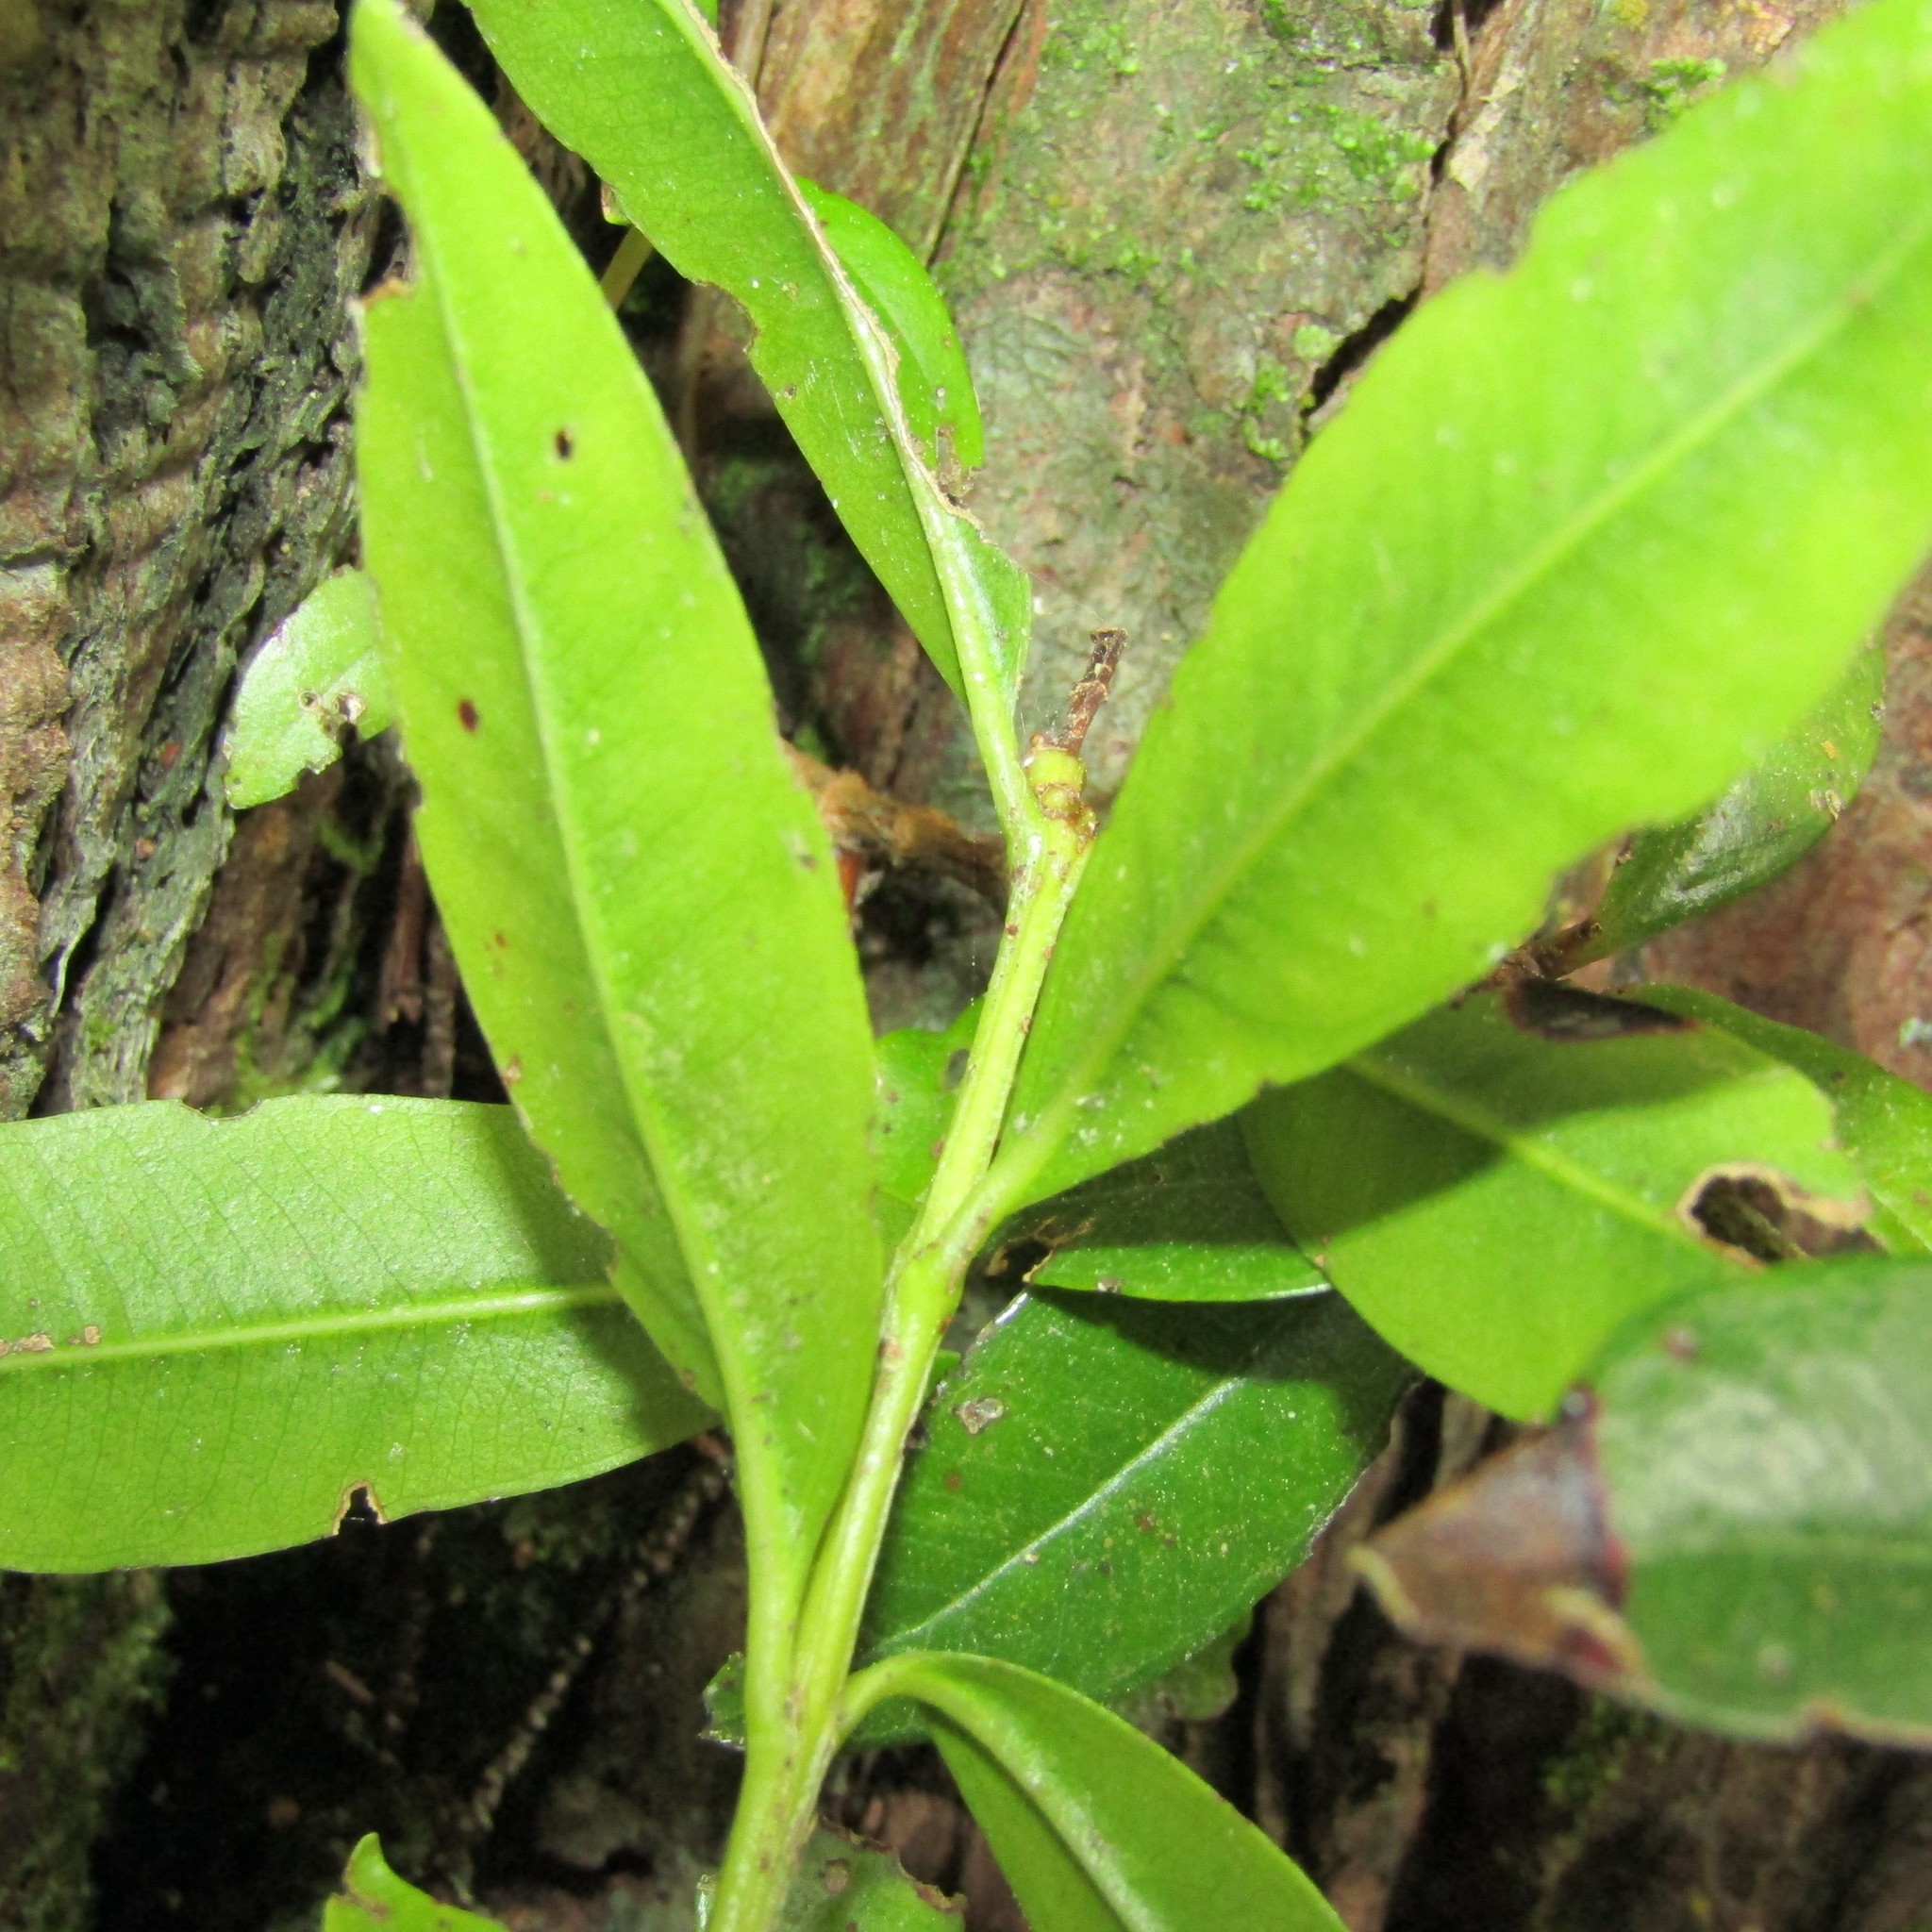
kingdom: Plantae
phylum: Tracheophyta
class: Magnoliopsida
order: Myrtales
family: Myrtaceae
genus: Metrosideros
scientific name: Metrosideros excelsa
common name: New zealand christmastree
